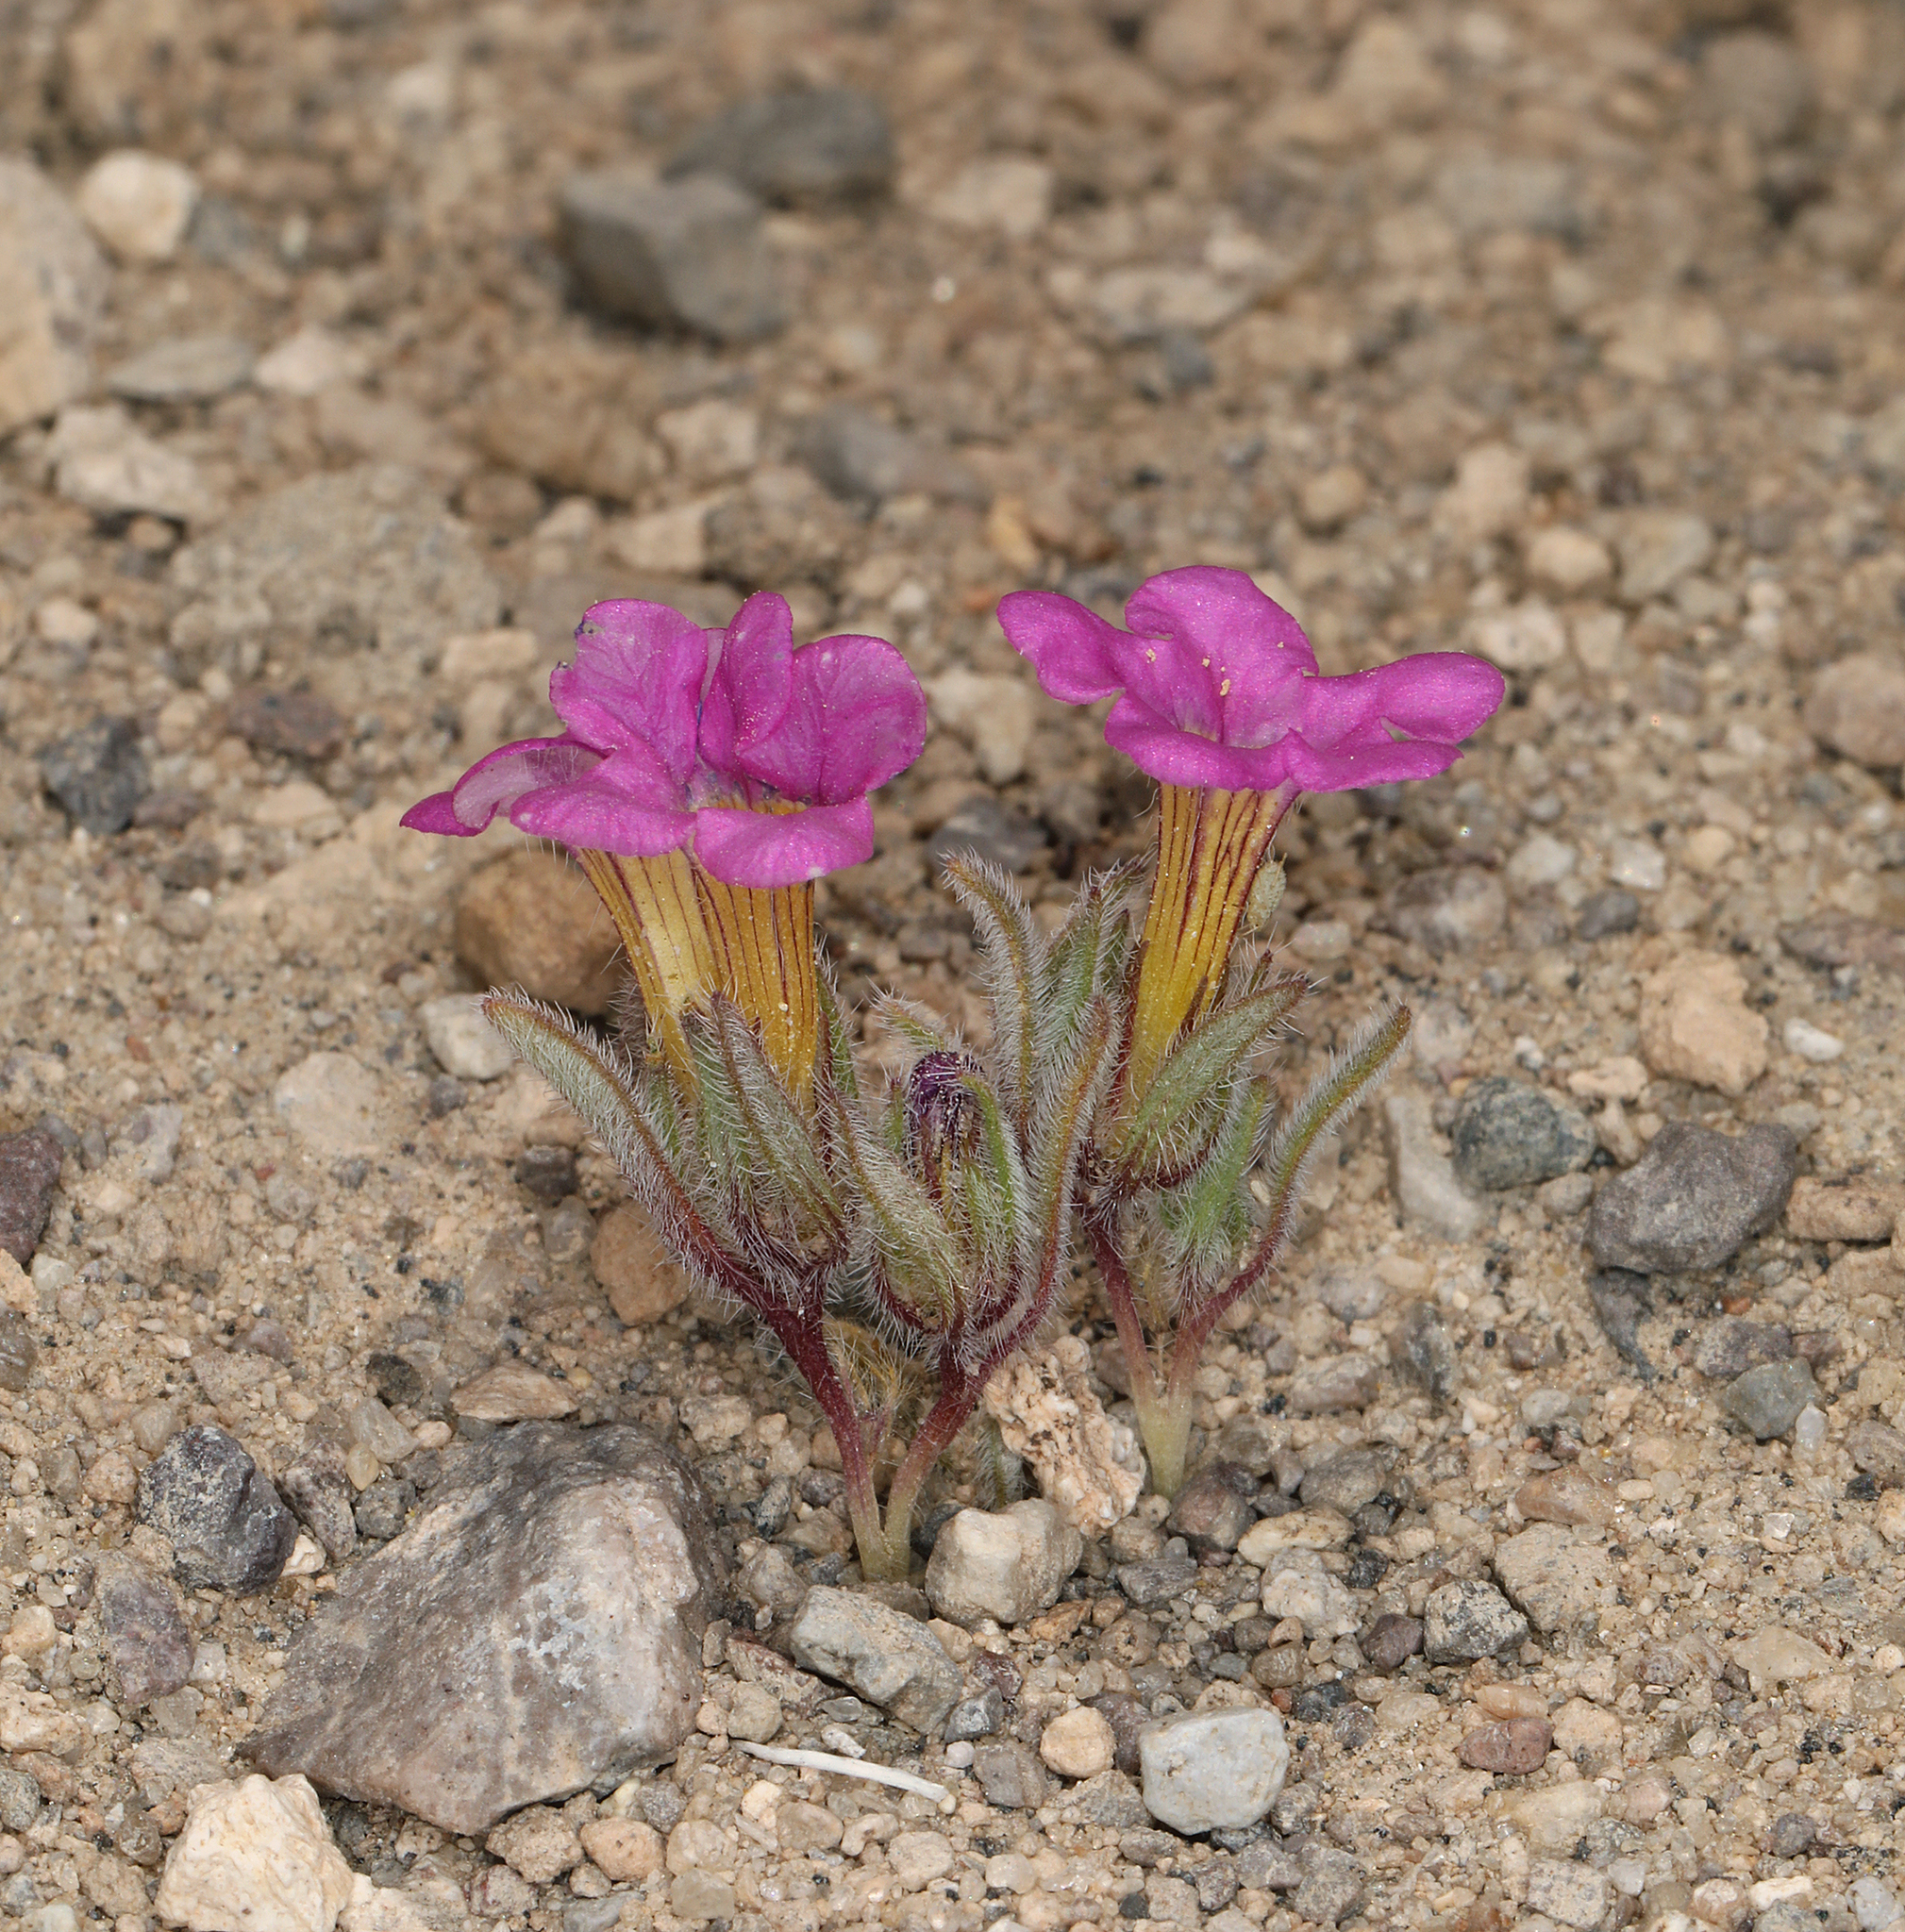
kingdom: Plantae
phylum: Tracheophyta
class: Magnoliopsida
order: Boraginales
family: Namaceae
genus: Nama
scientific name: Nama aretioides
